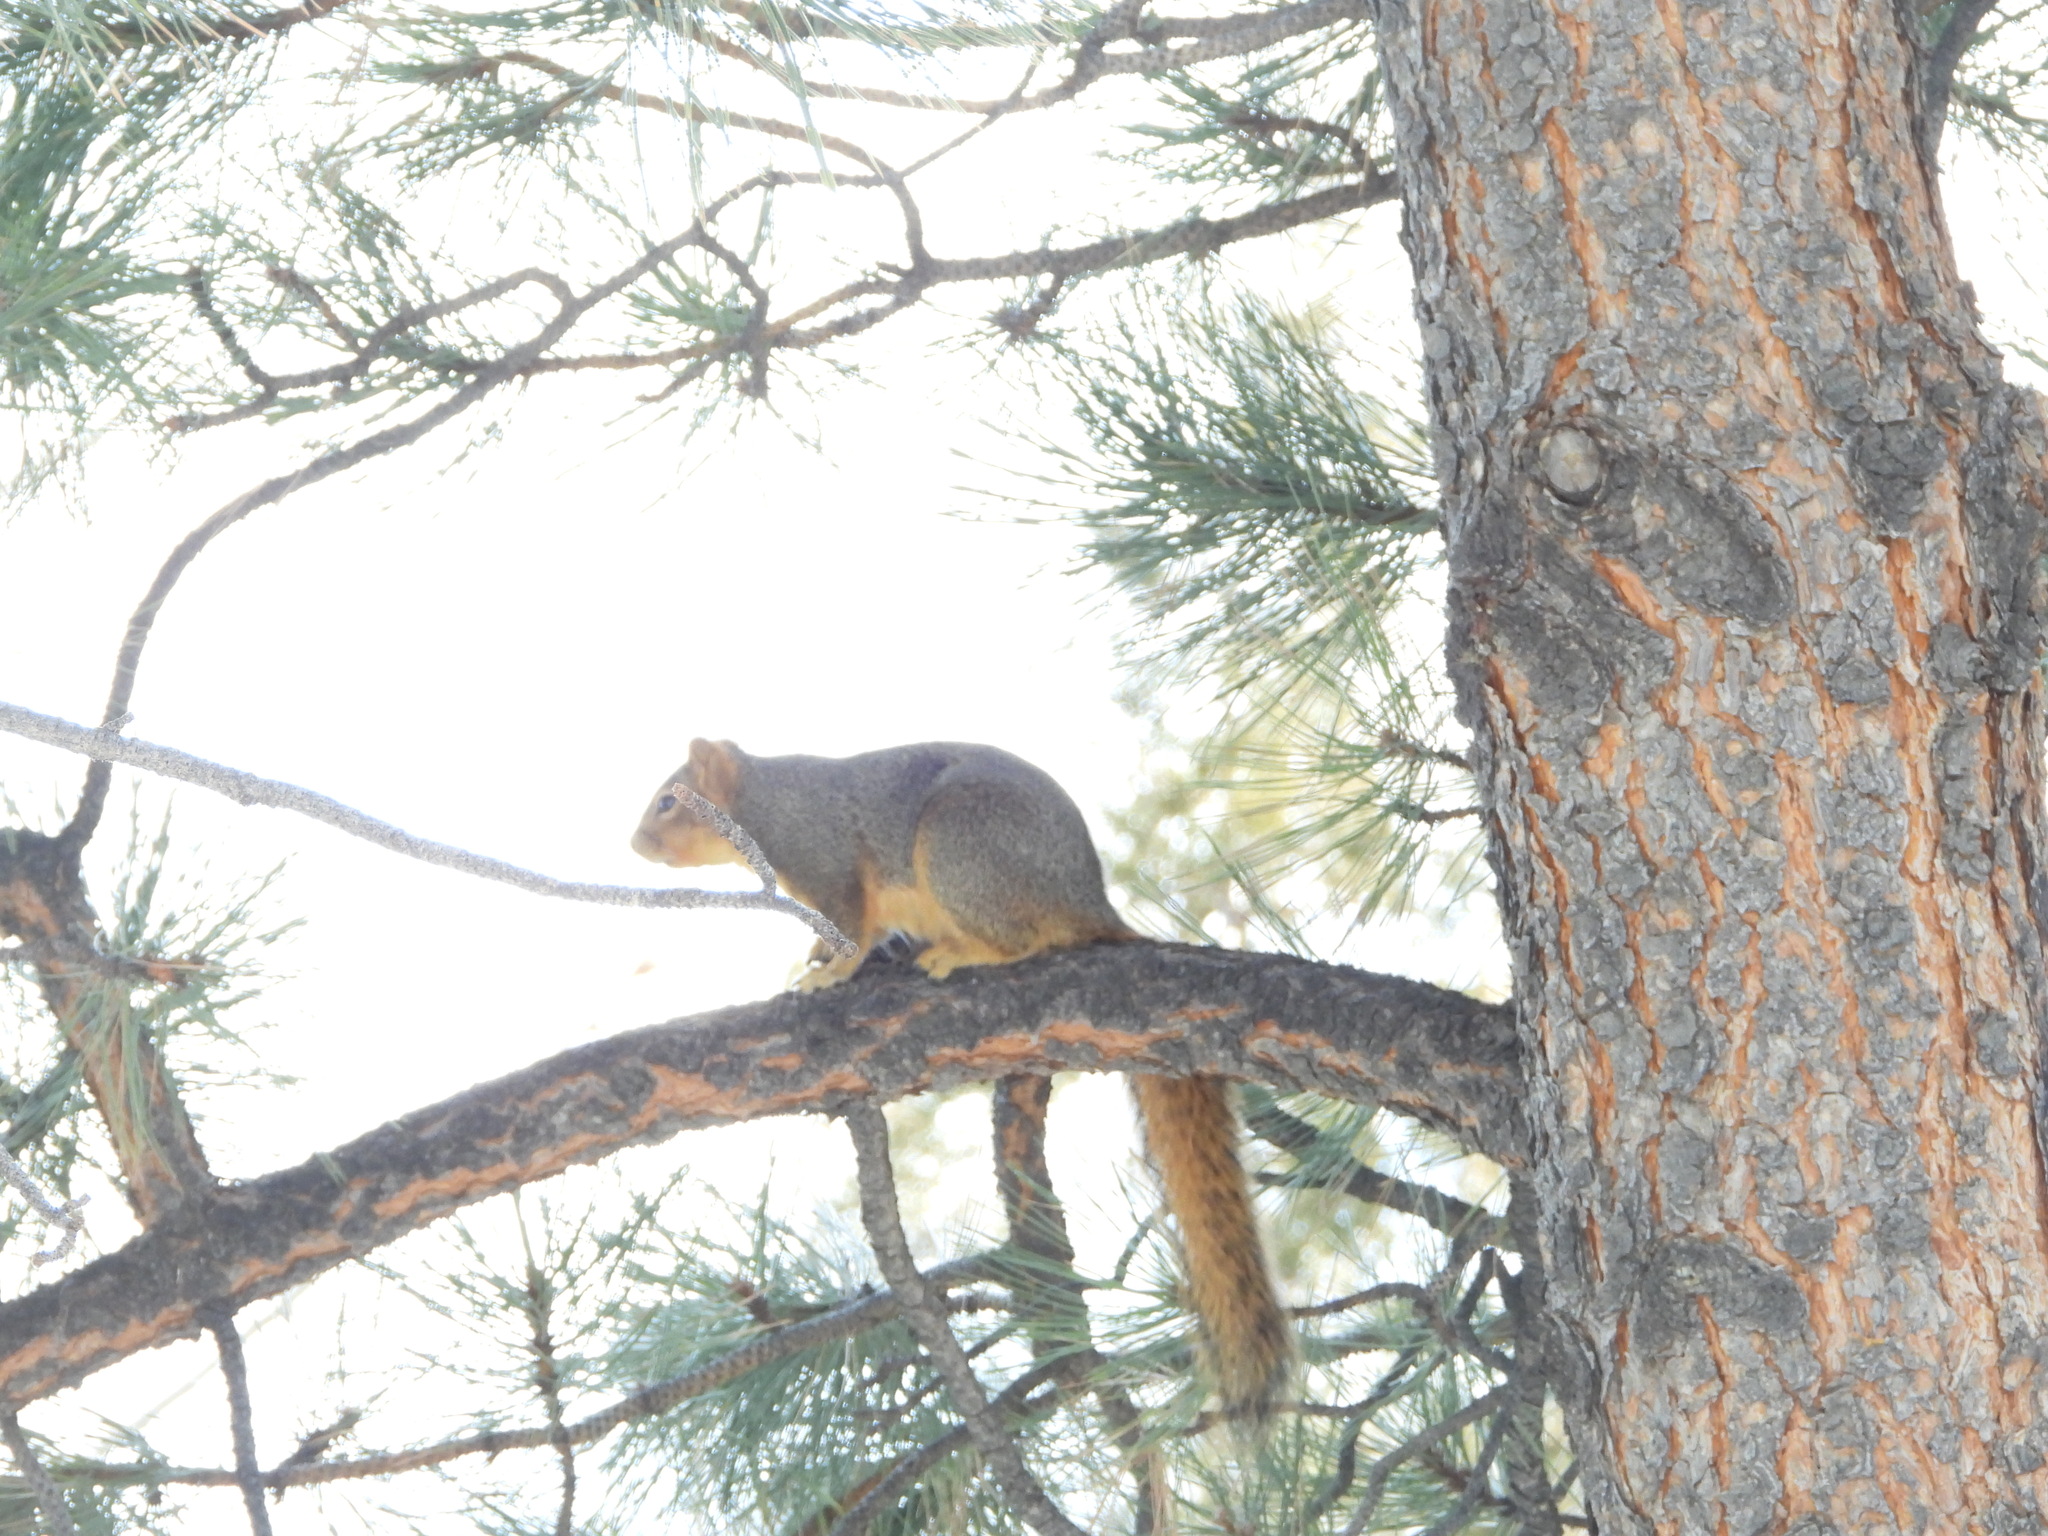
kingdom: Animalia
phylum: Chordata
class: Mammalia
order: Rodentia
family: Sciuridae
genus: Sciurus
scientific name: Sciurus niger
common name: Fox squirrel
